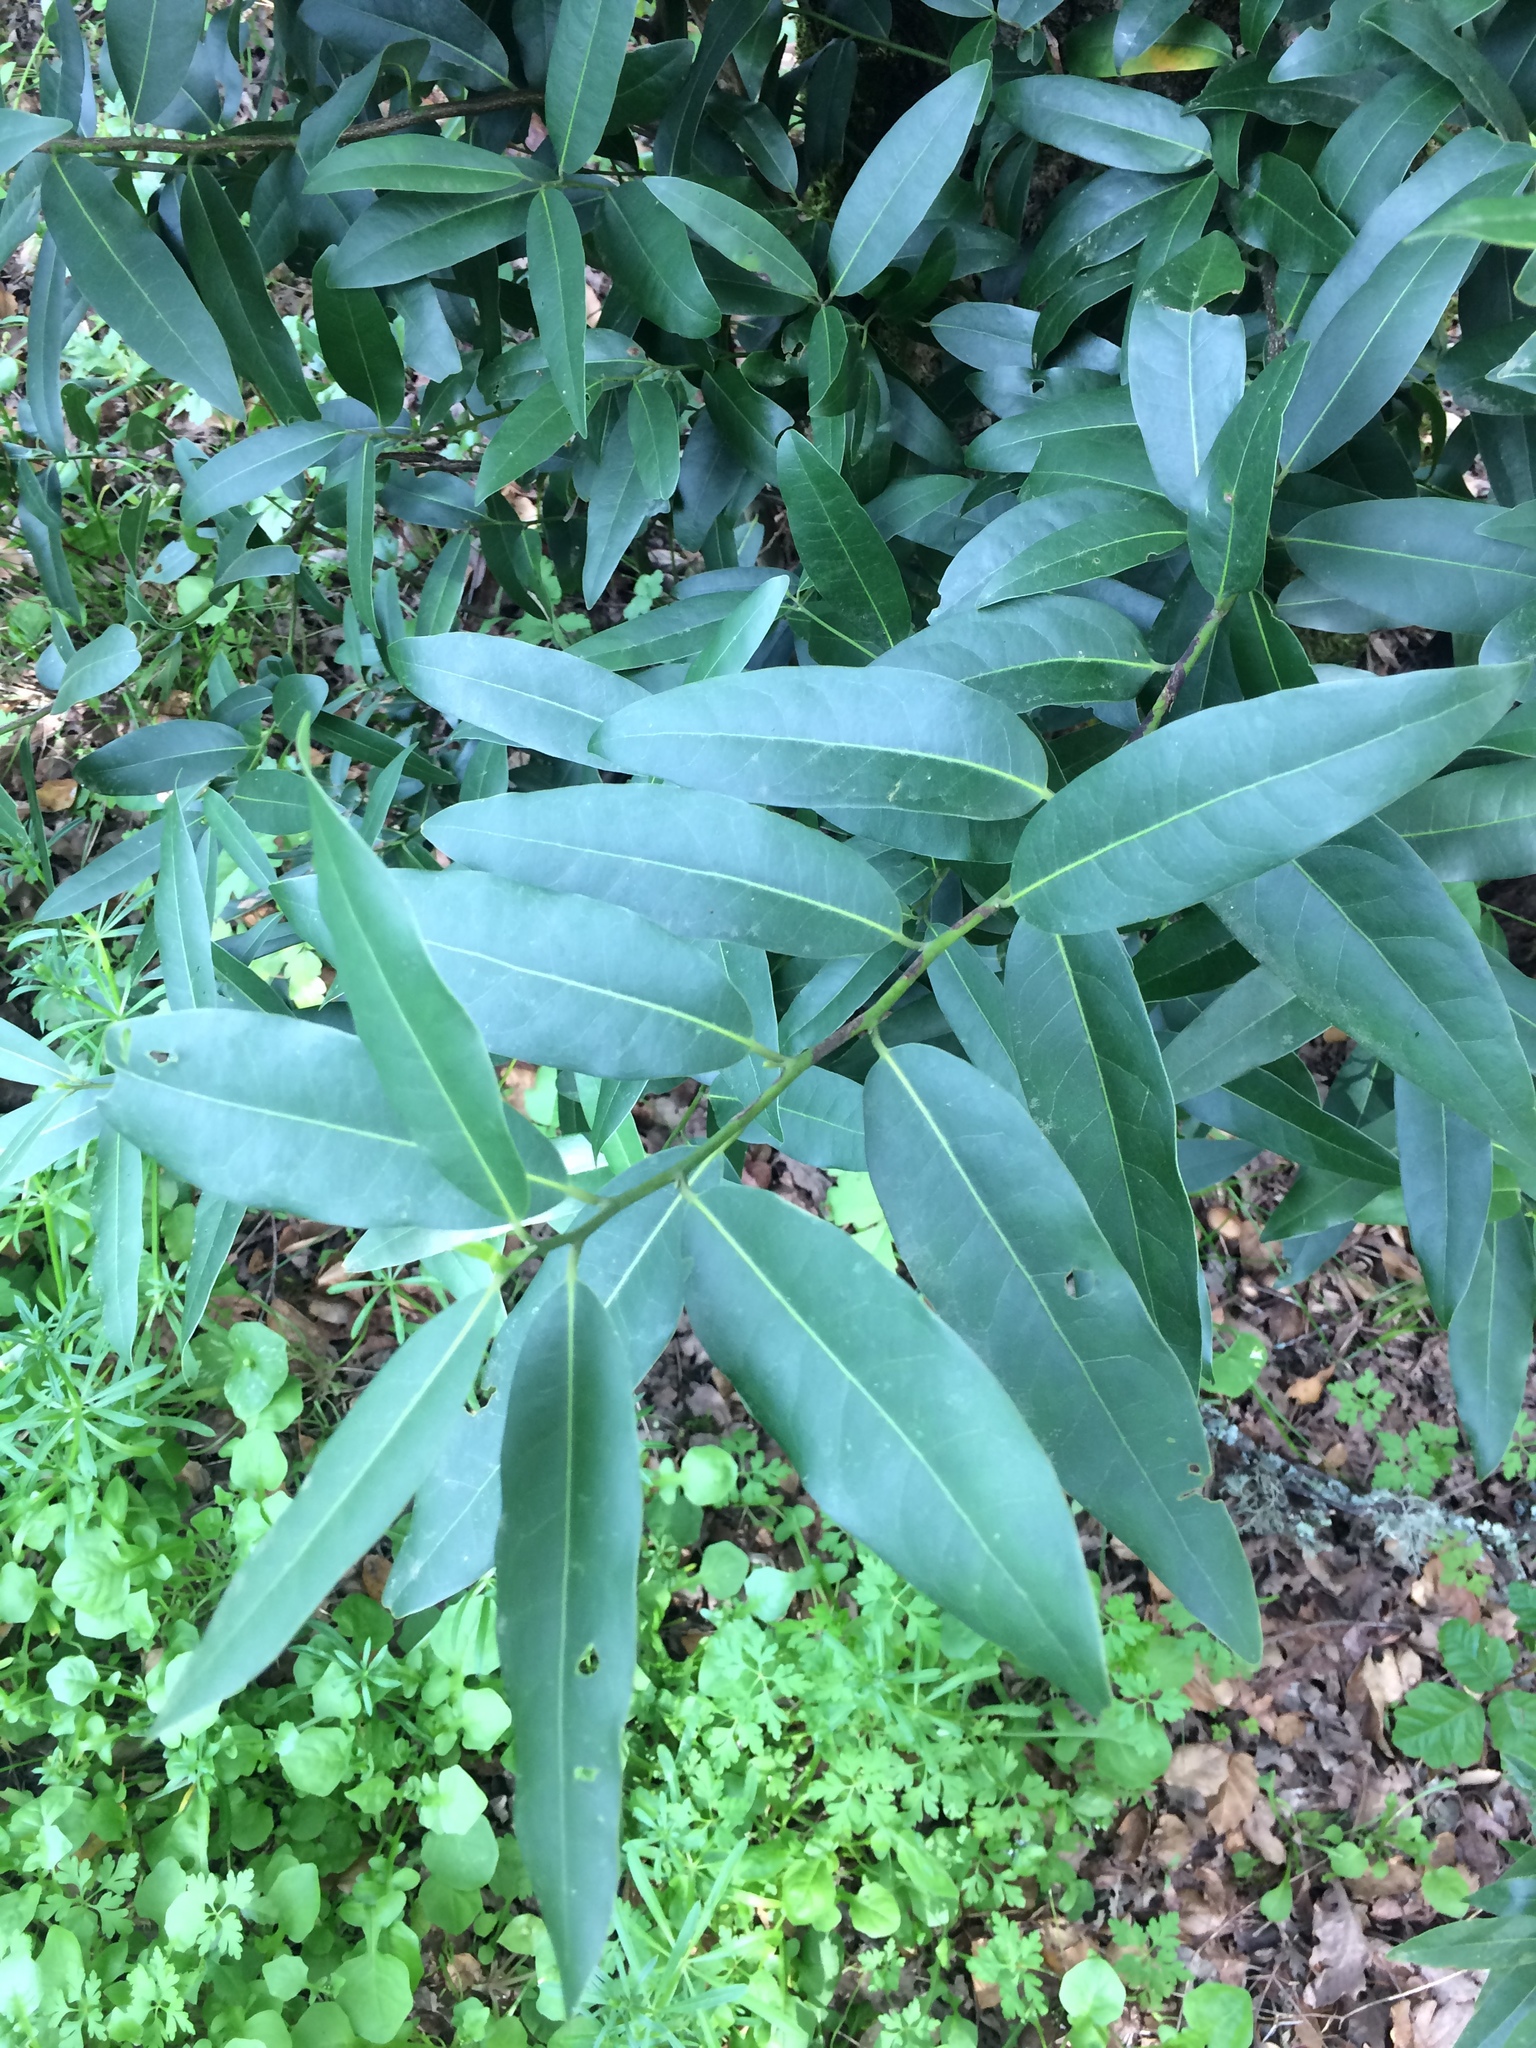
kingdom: Plantae
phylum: Tracheophyta
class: Magnoliopsida
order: Laurales
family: Lauraceae
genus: Umbellularia
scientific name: Umbellularia californica
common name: California bay
